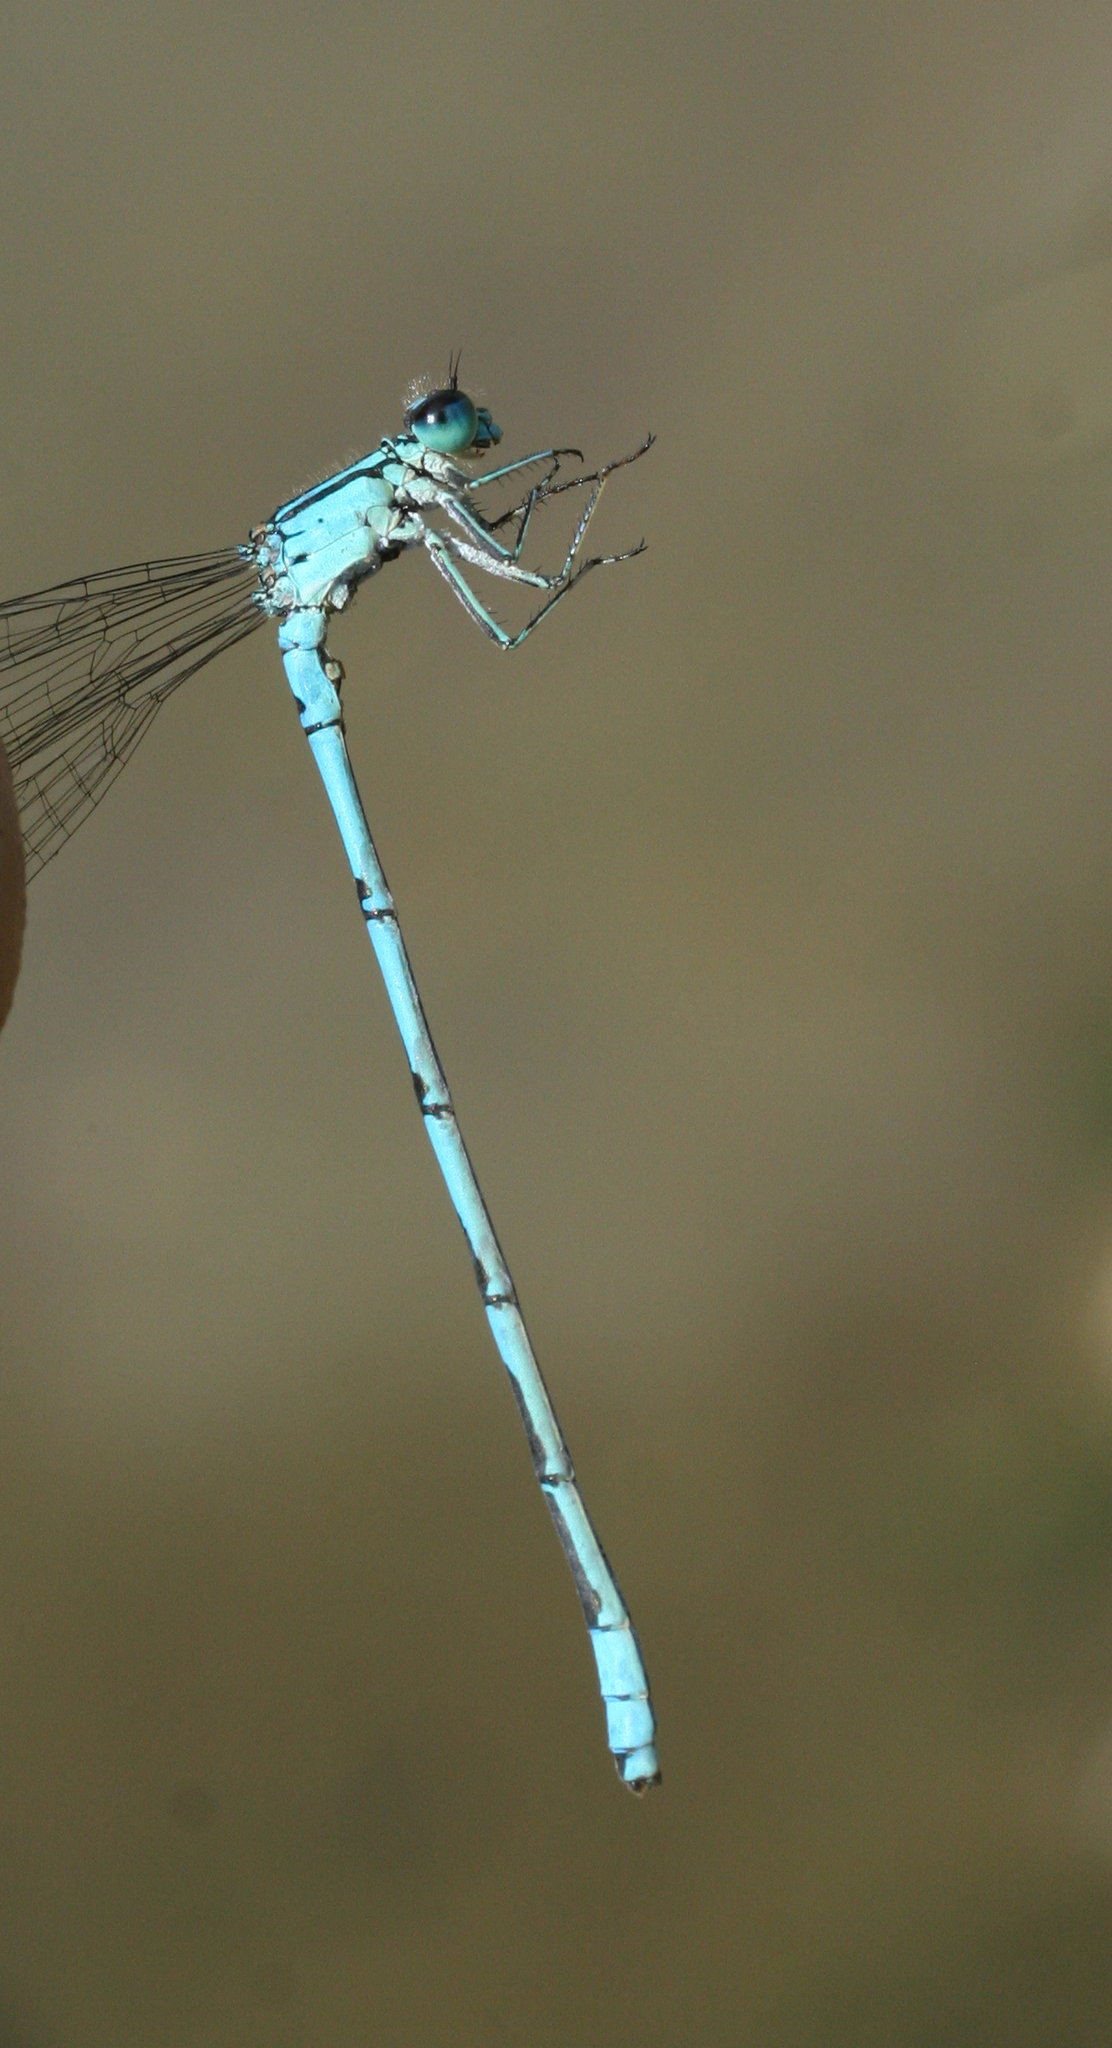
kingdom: Animalia
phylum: Arthropoda
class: Insecta
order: Odonata
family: Coenagrionidae
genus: Coenagrion
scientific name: Coenagrion lanceolatum
